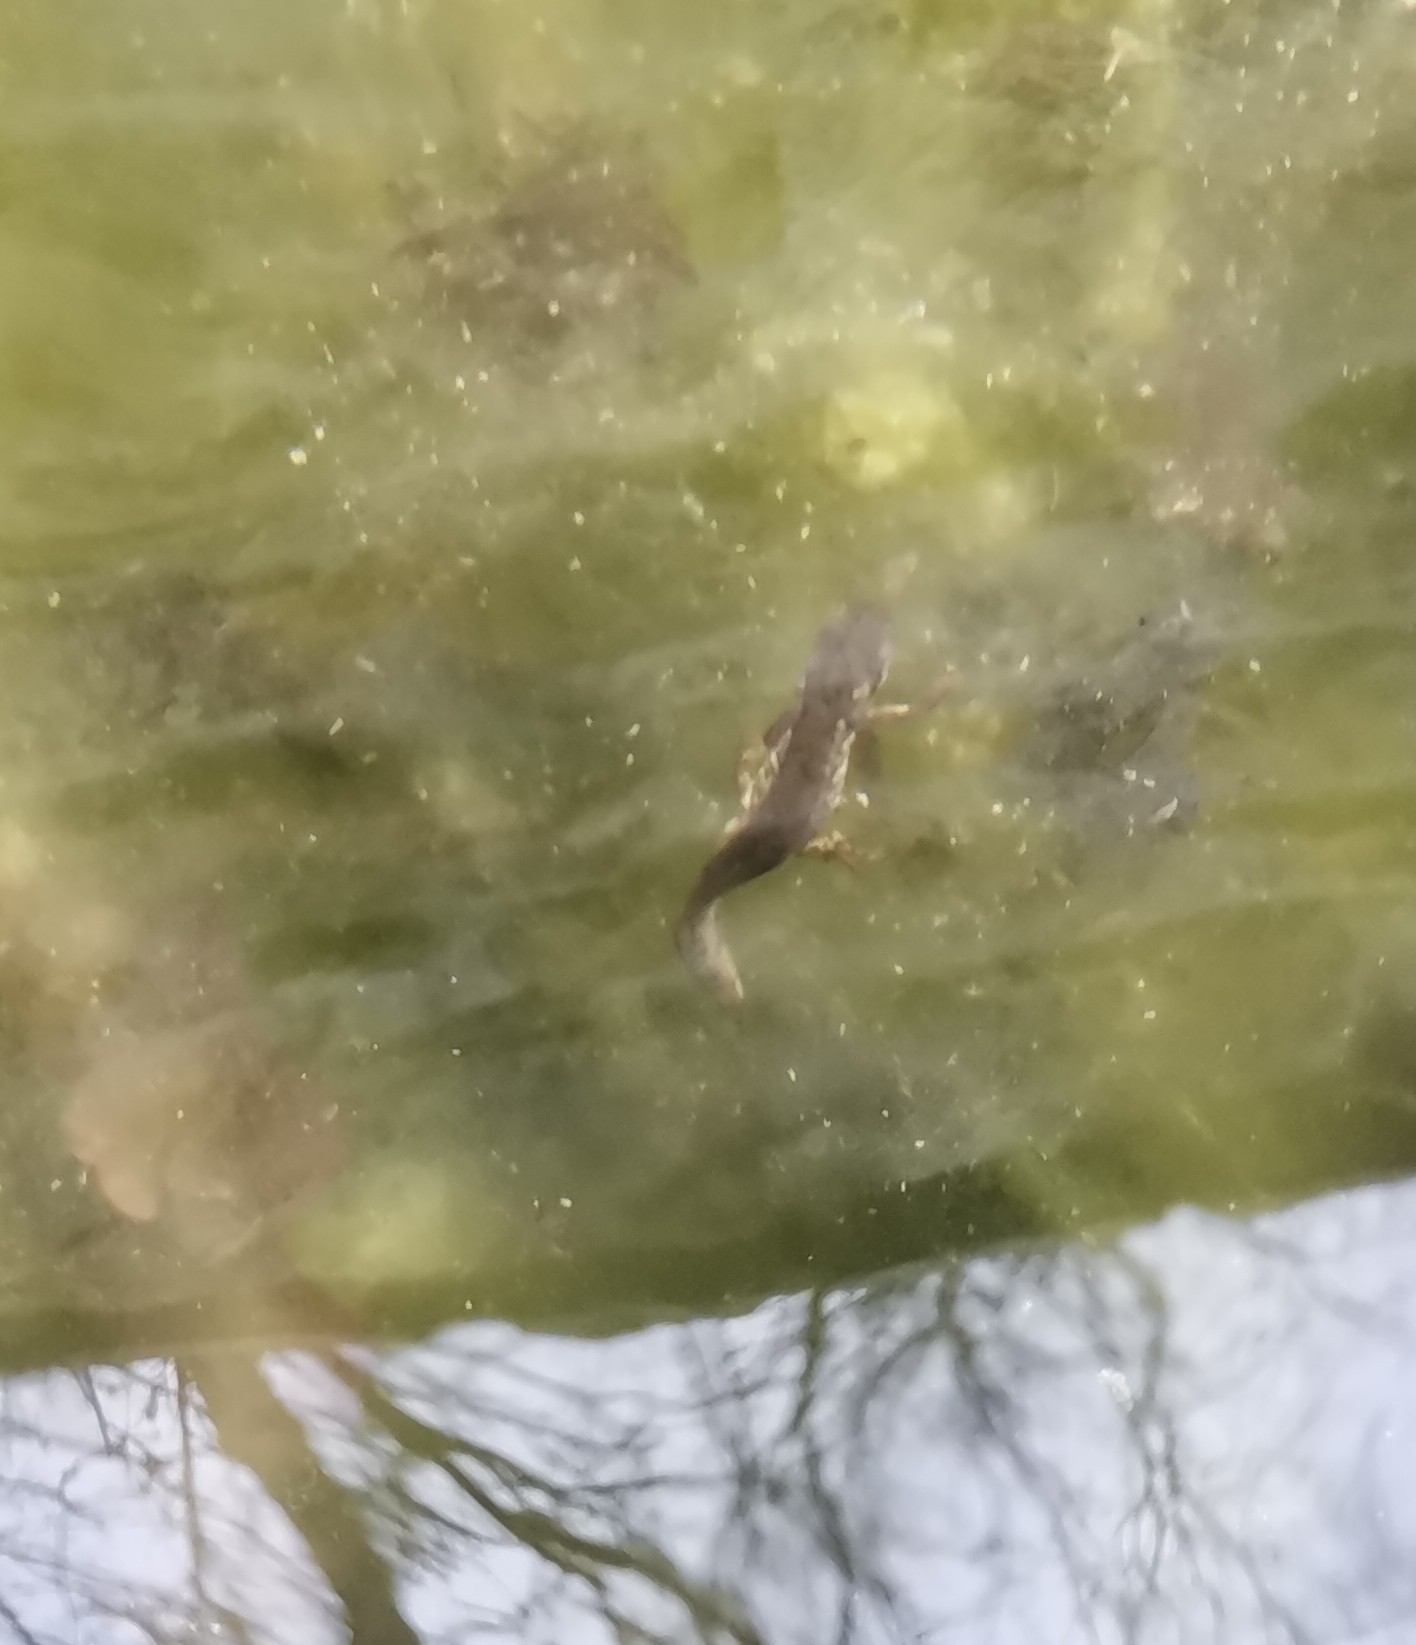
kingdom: Animalia
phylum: Chordata
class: Amphibia
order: Caudata
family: Salamandridae
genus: Lissotriton
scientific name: Lissotriton italicus
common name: Italian newt
